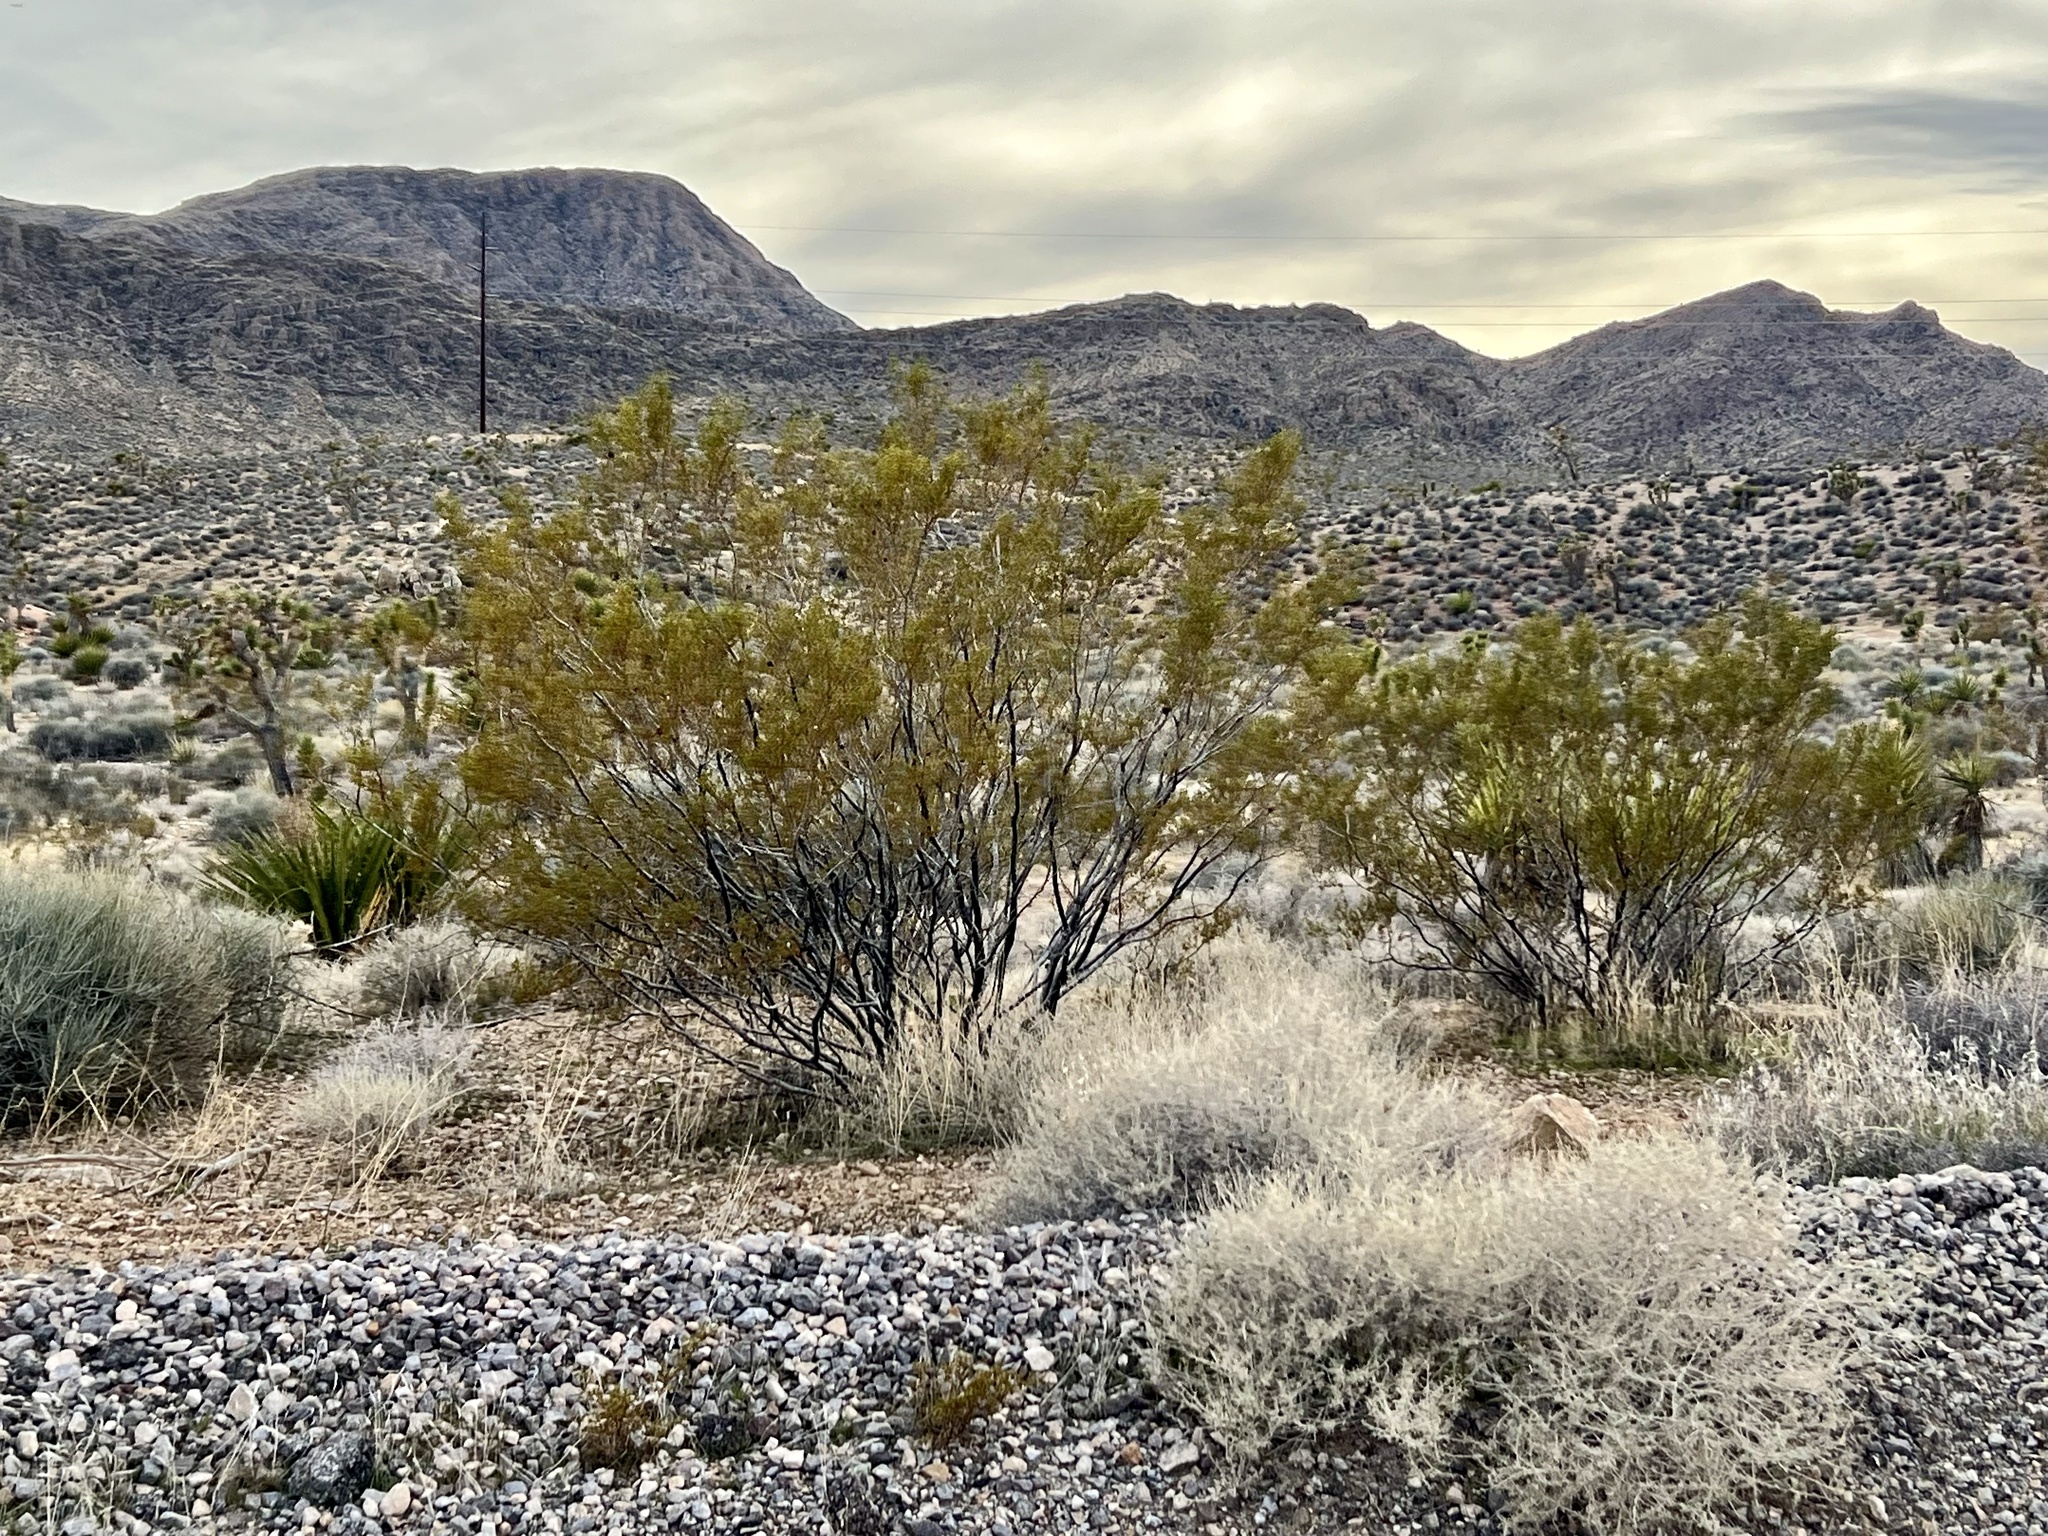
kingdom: Plantae
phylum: Tracheophyta
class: Magnoliopsida
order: Zygophyllales
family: Zygophyllaceae
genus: Larrea
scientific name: Larrea tridentata
